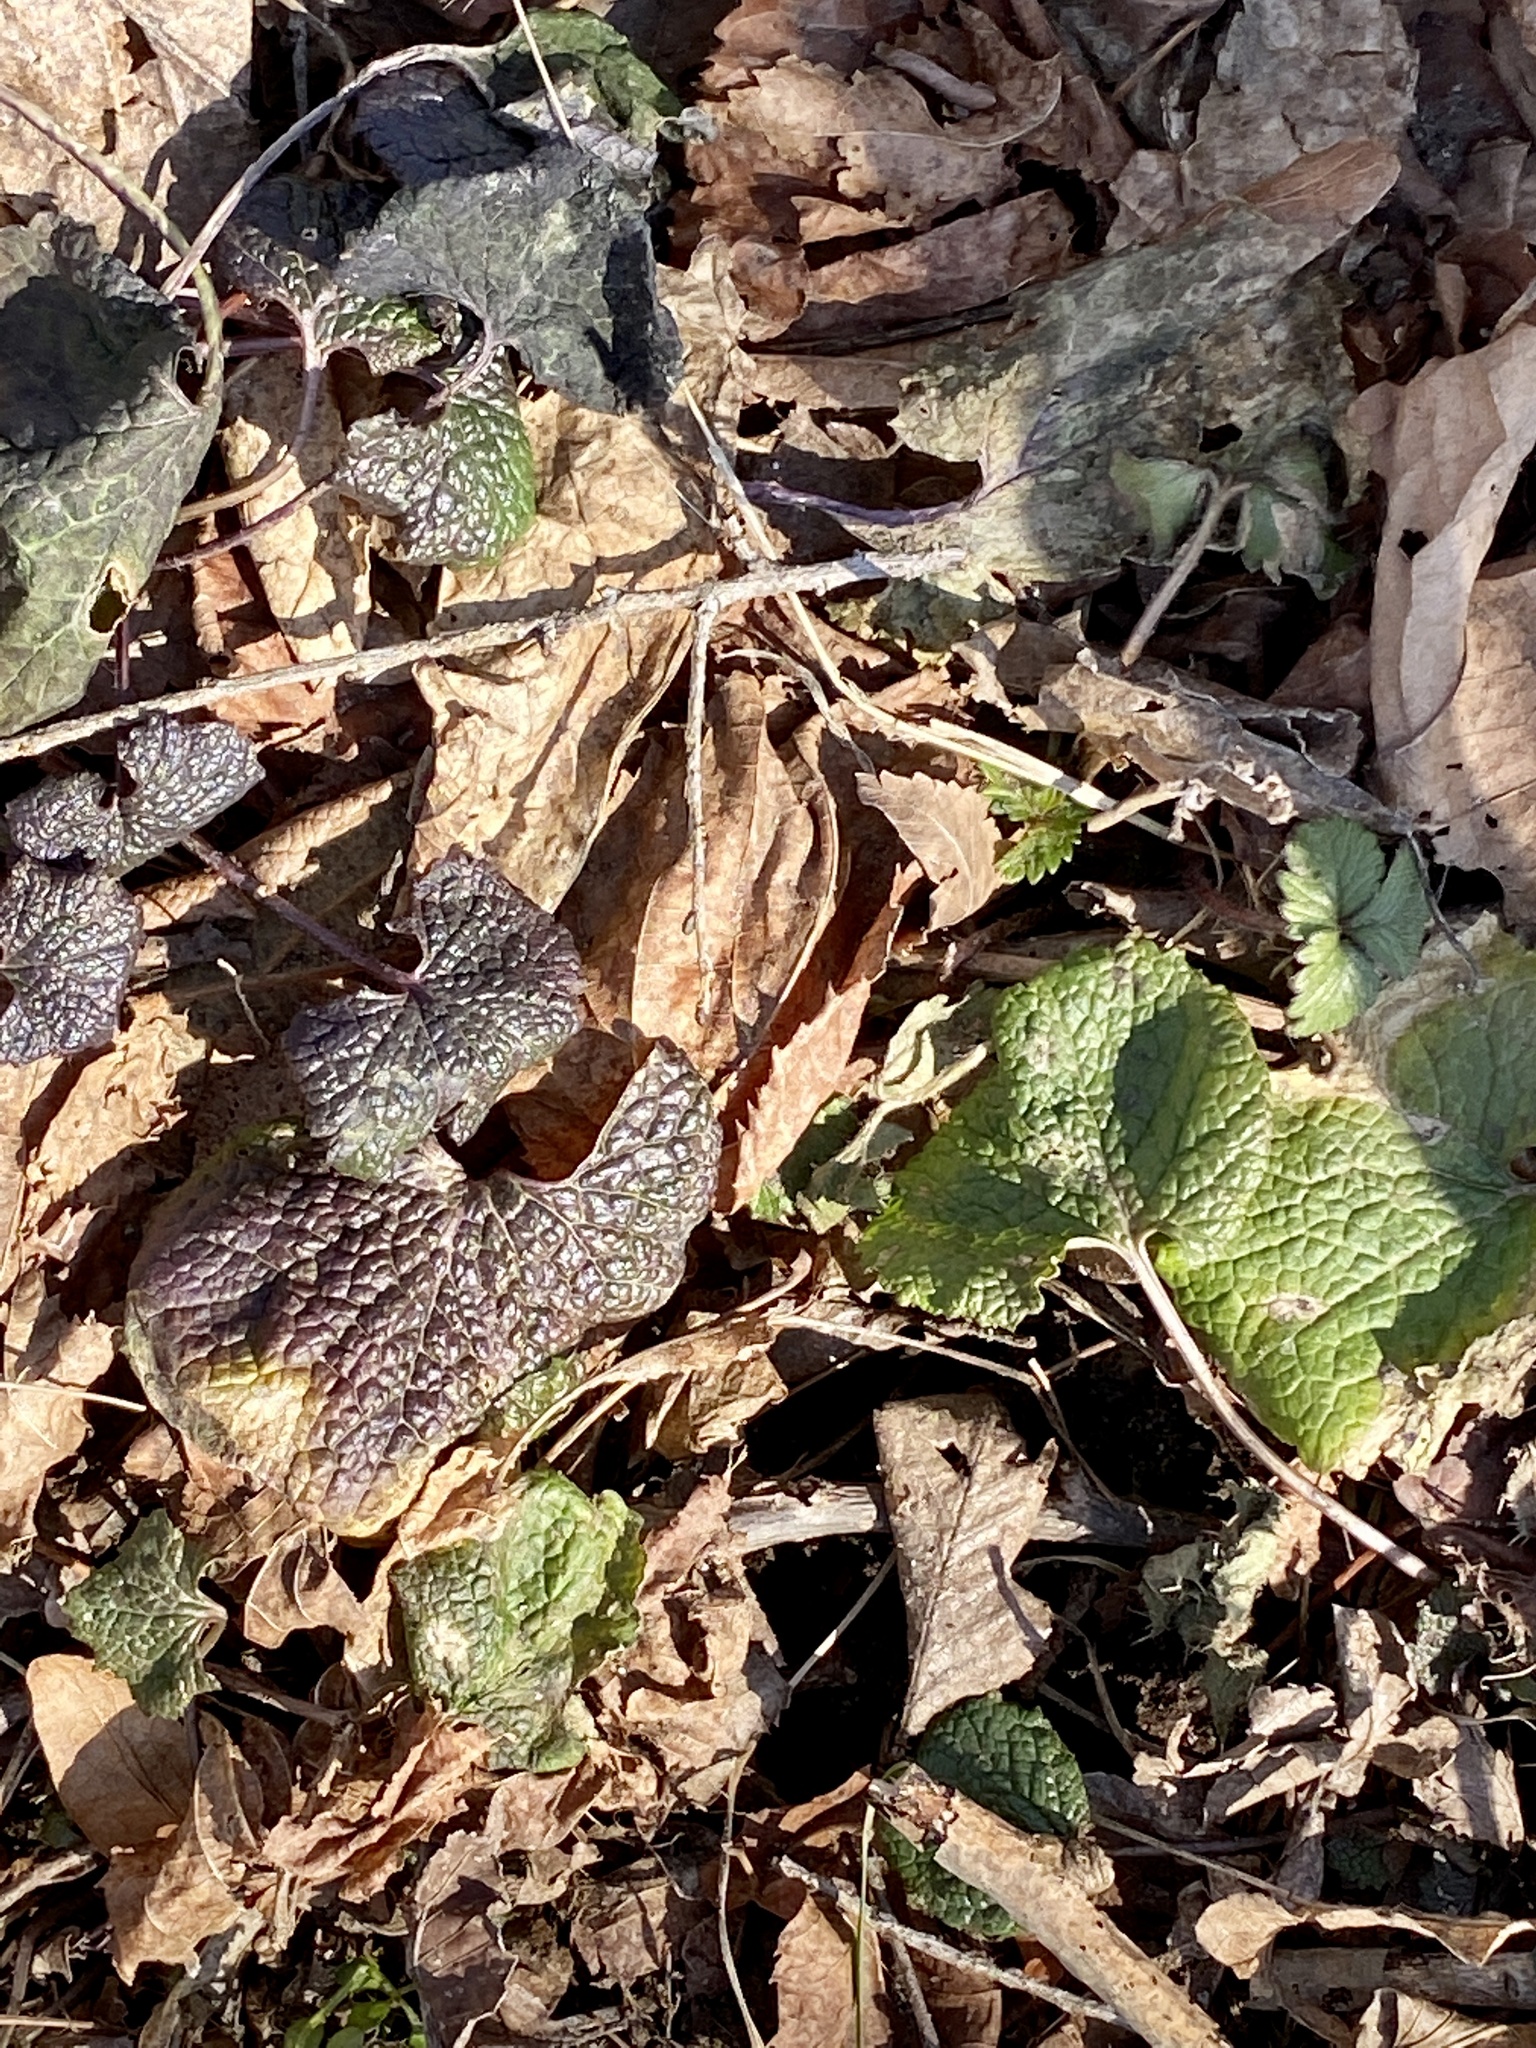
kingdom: Plantae
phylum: Tracheophyta
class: Magnoliopsida
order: Brassicales
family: Brassicaceae
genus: Alliaria
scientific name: Alliaria petiolata
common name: Garlic mustard
